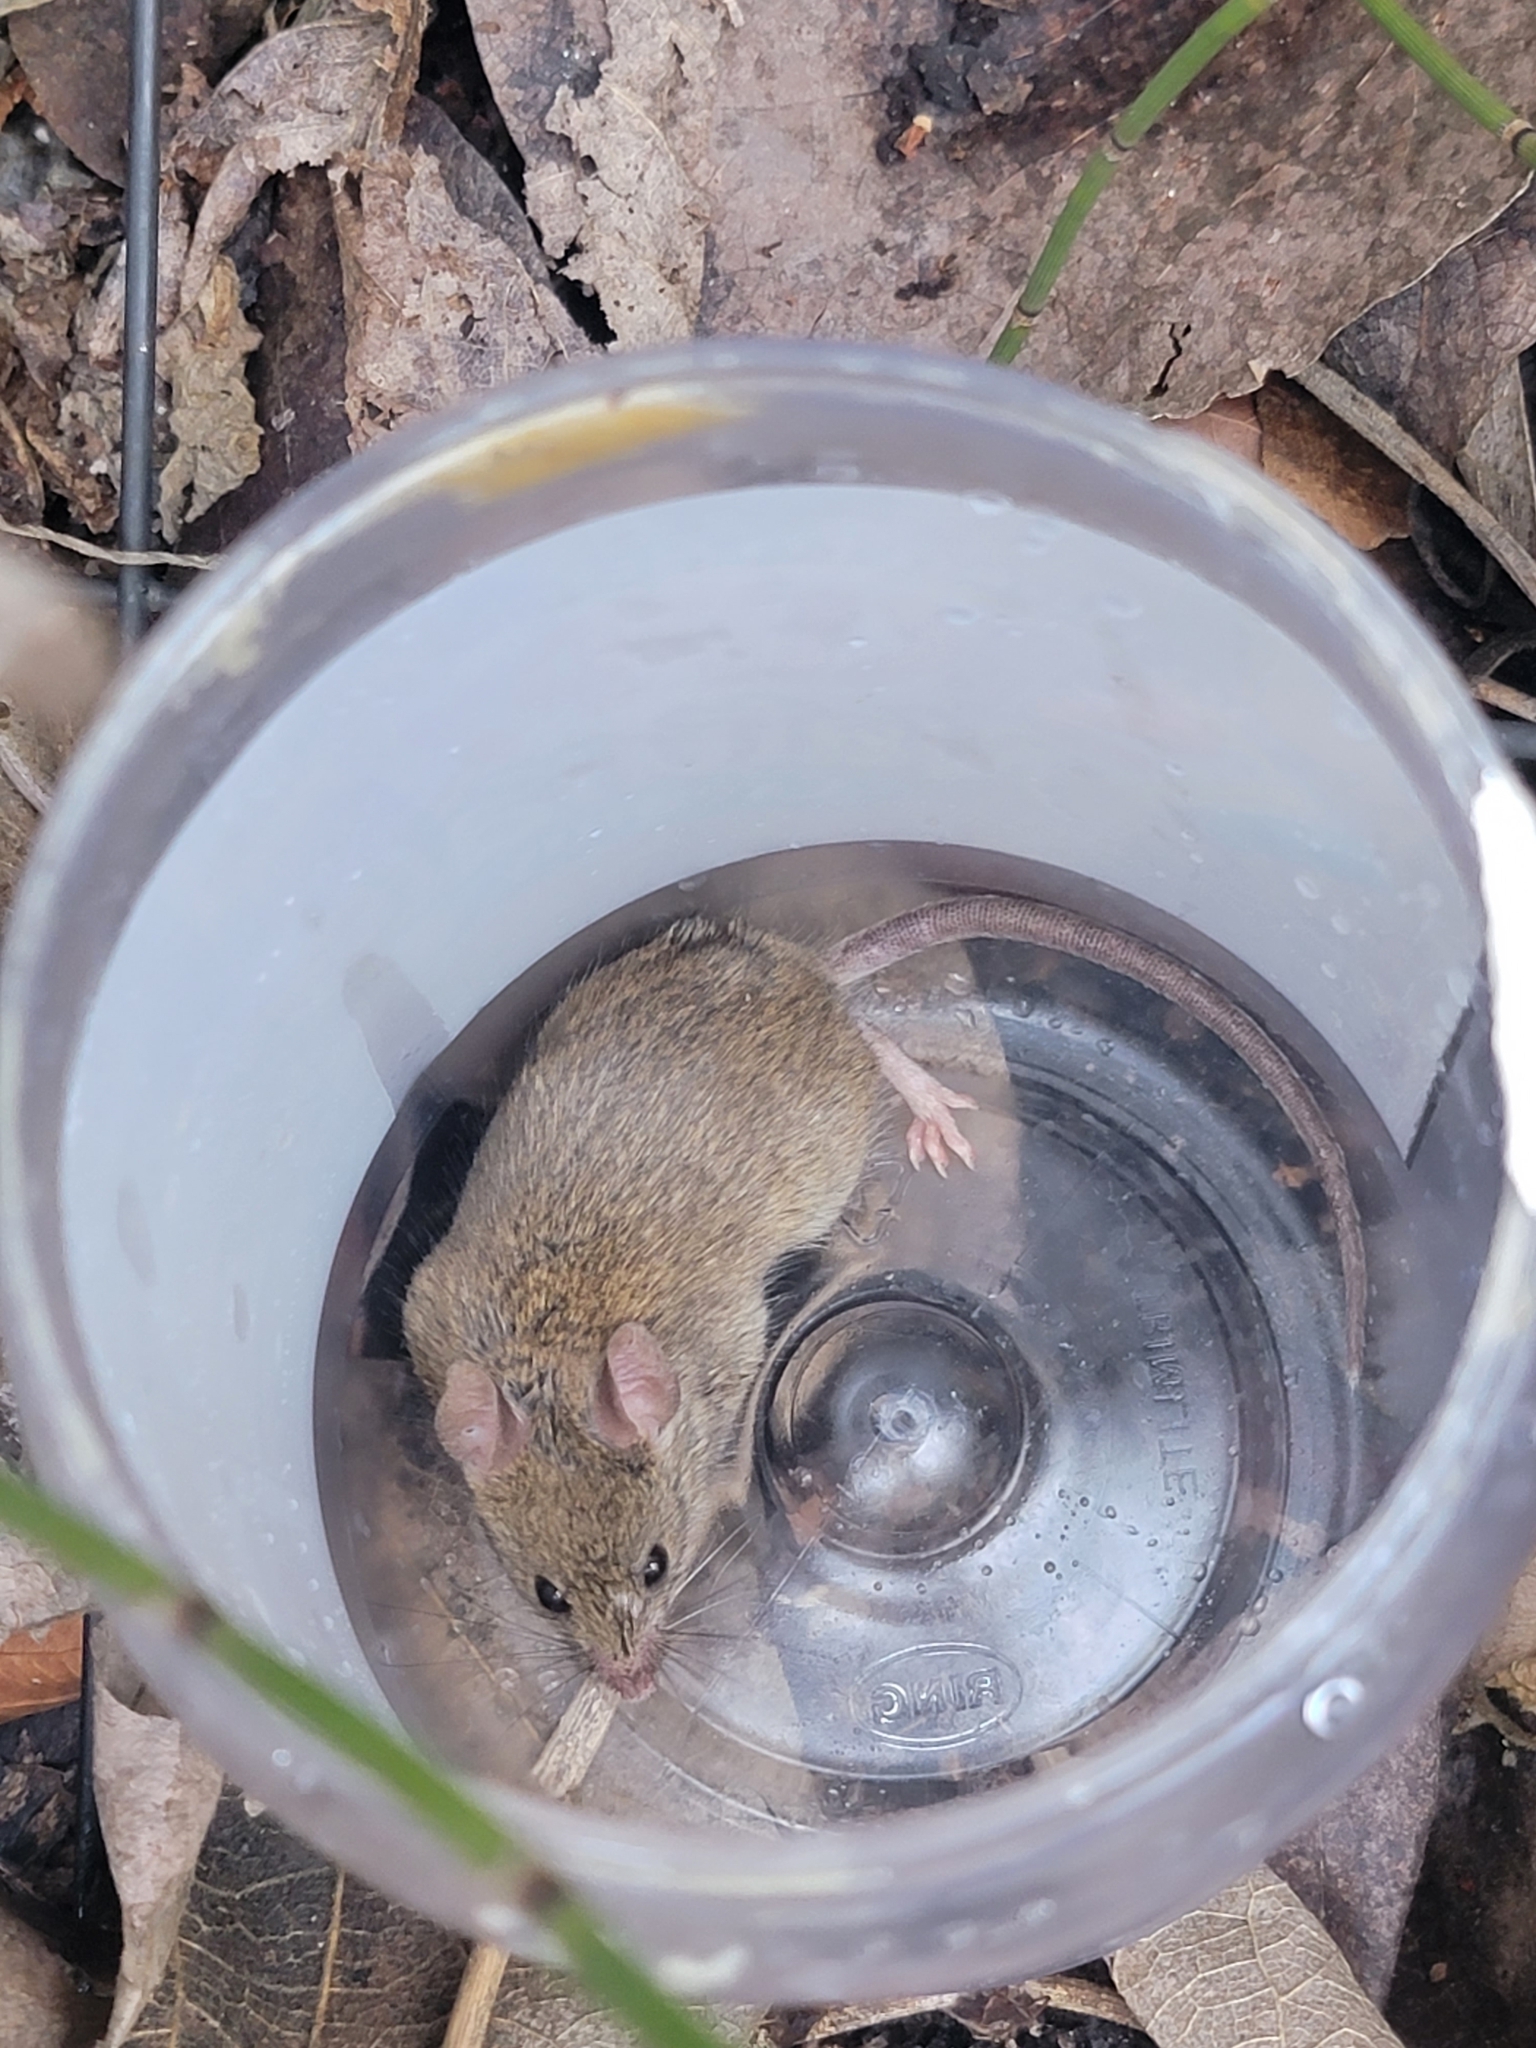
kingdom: Animalia
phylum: Chordata
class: Mammalia
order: Rodentia
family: Muridae
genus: Mus
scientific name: Mus musculus
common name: House mouse
